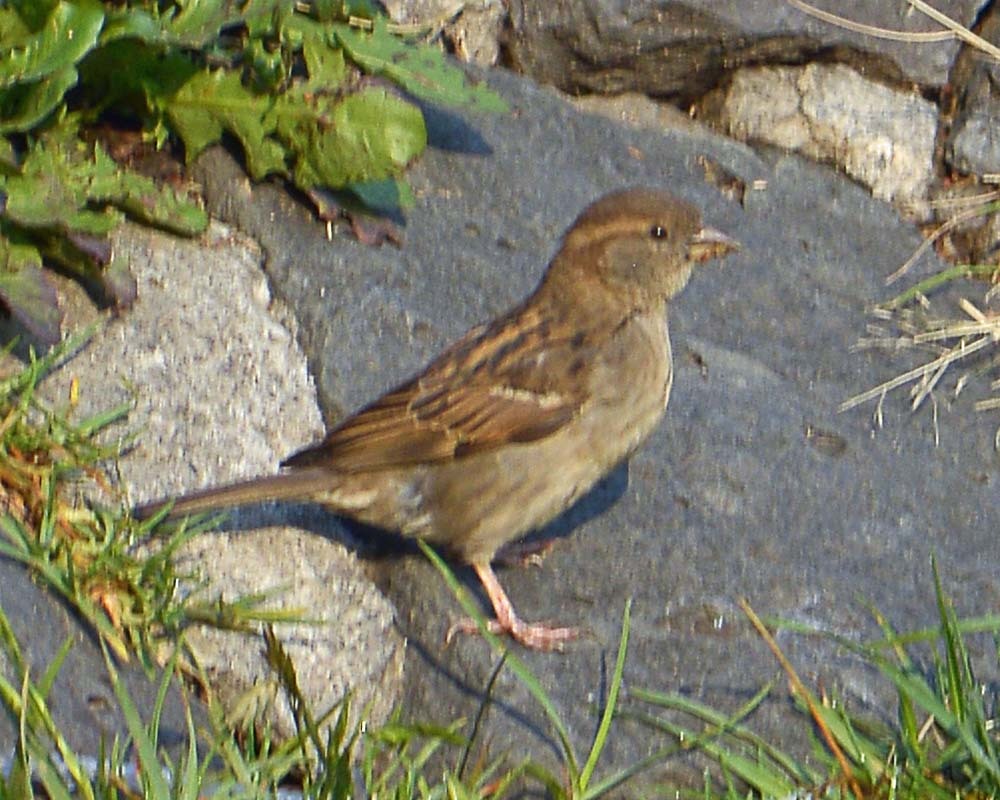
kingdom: Animalia
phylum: Chordata
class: Aves
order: Passeriformes
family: Passeridae
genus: Passer
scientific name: Passer domesticus
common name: House sparrow
